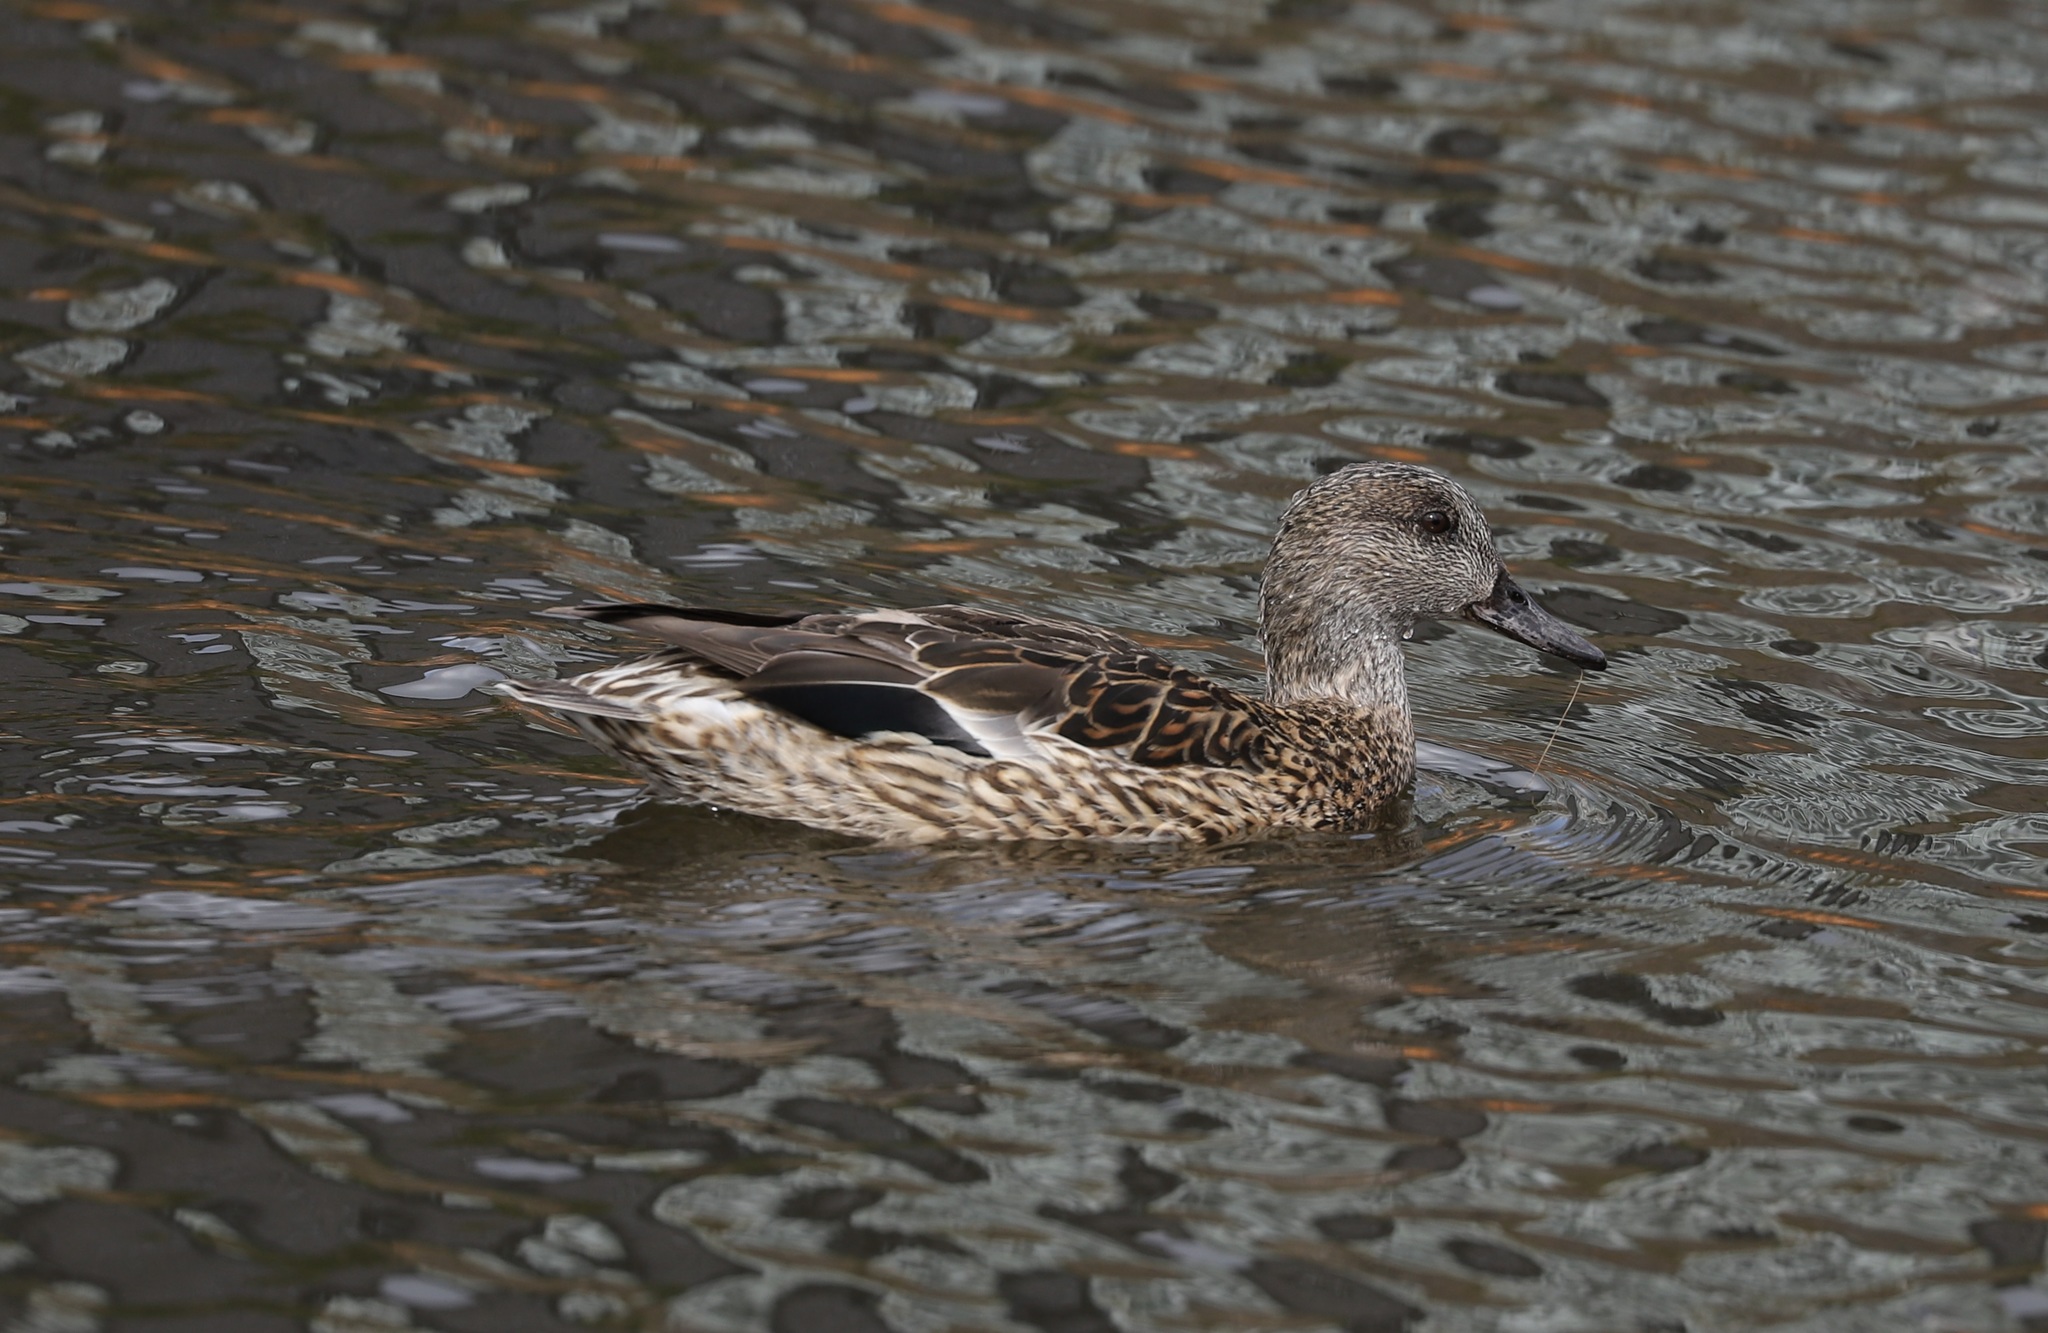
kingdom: Animalia
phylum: Chordata
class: Aves
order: Anseriformes
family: Anatidae
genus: Mareca
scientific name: Mareca falcata
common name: Falcated duck
